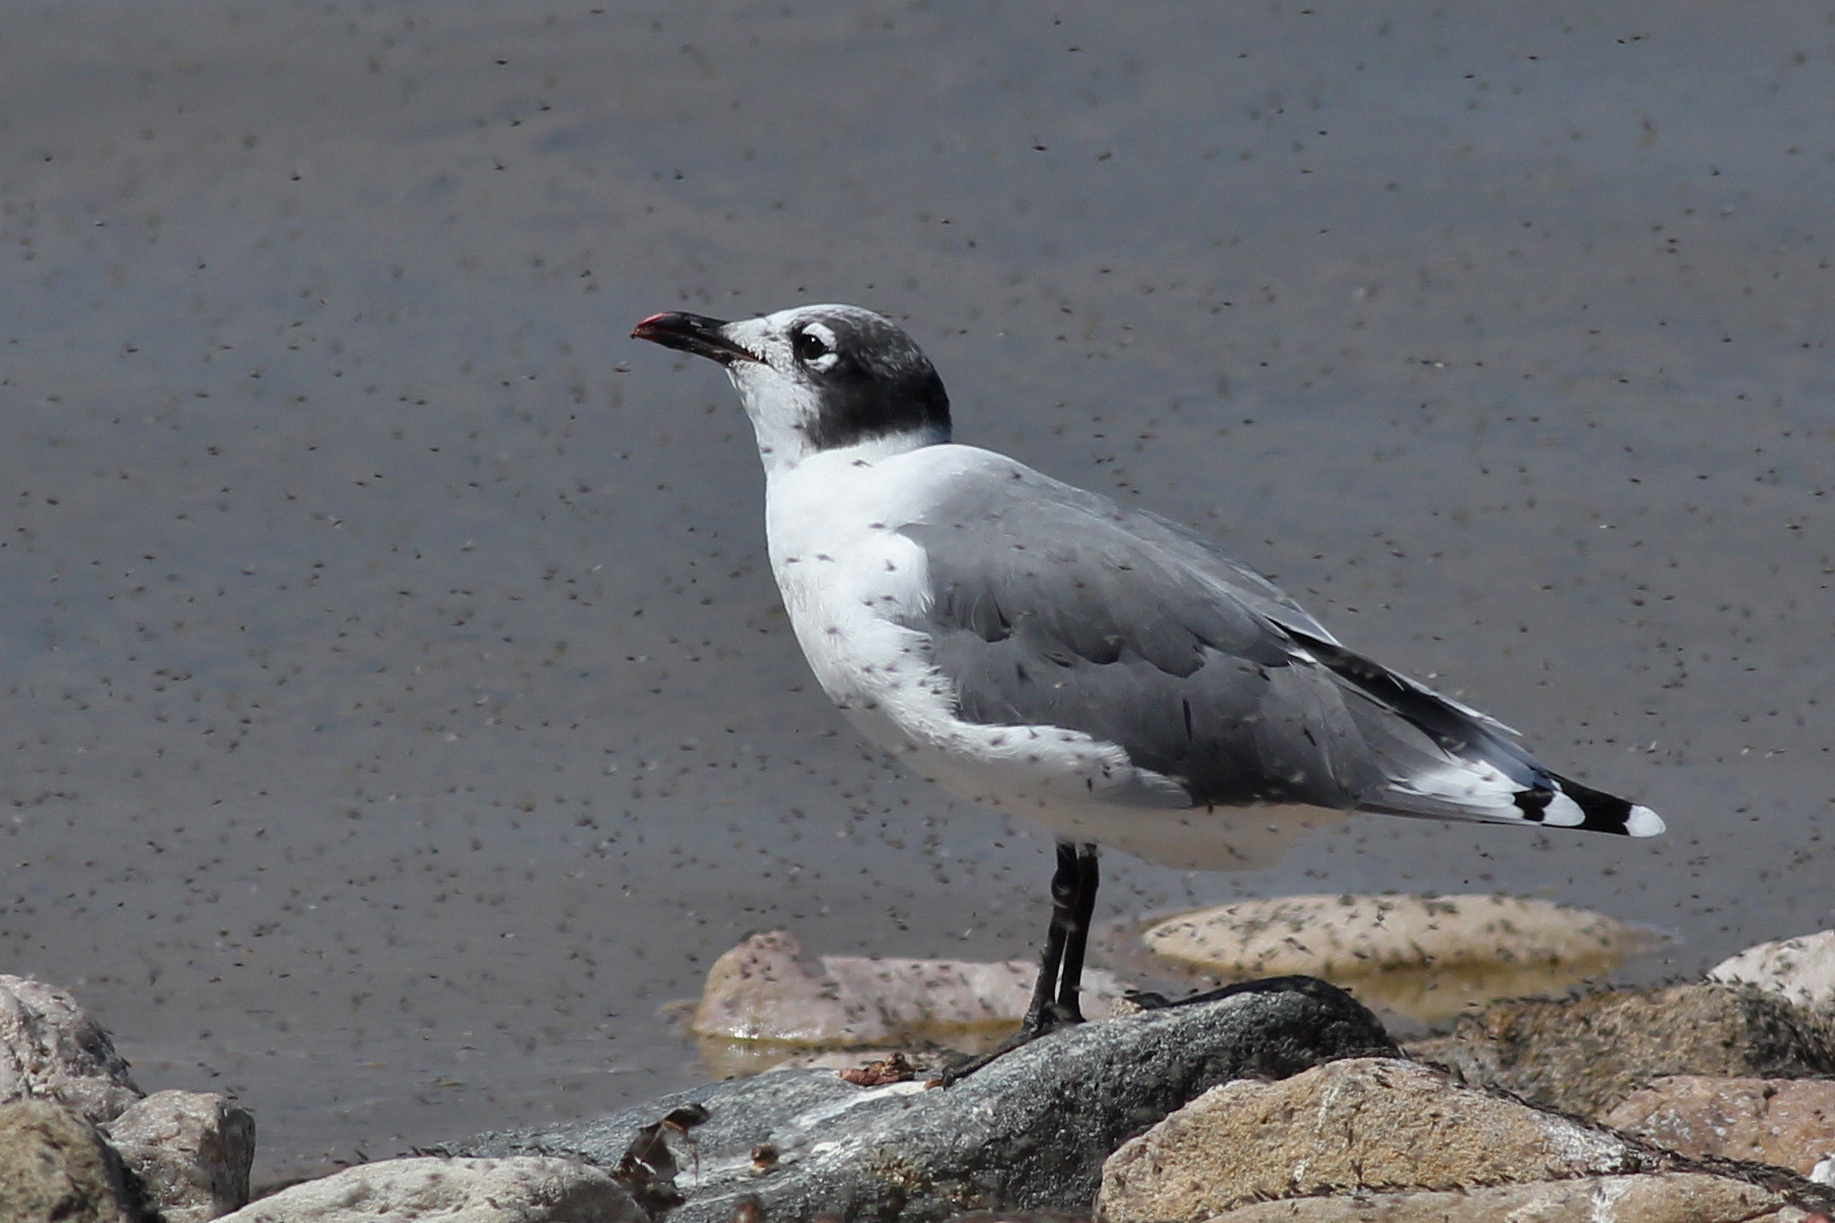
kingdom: Animalia
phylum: Chordata
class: Aves
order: Charadriiformes
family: Laridae
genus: Leucophaeus
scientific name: Leucophaeus pipixcan
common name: Franklin's gull
